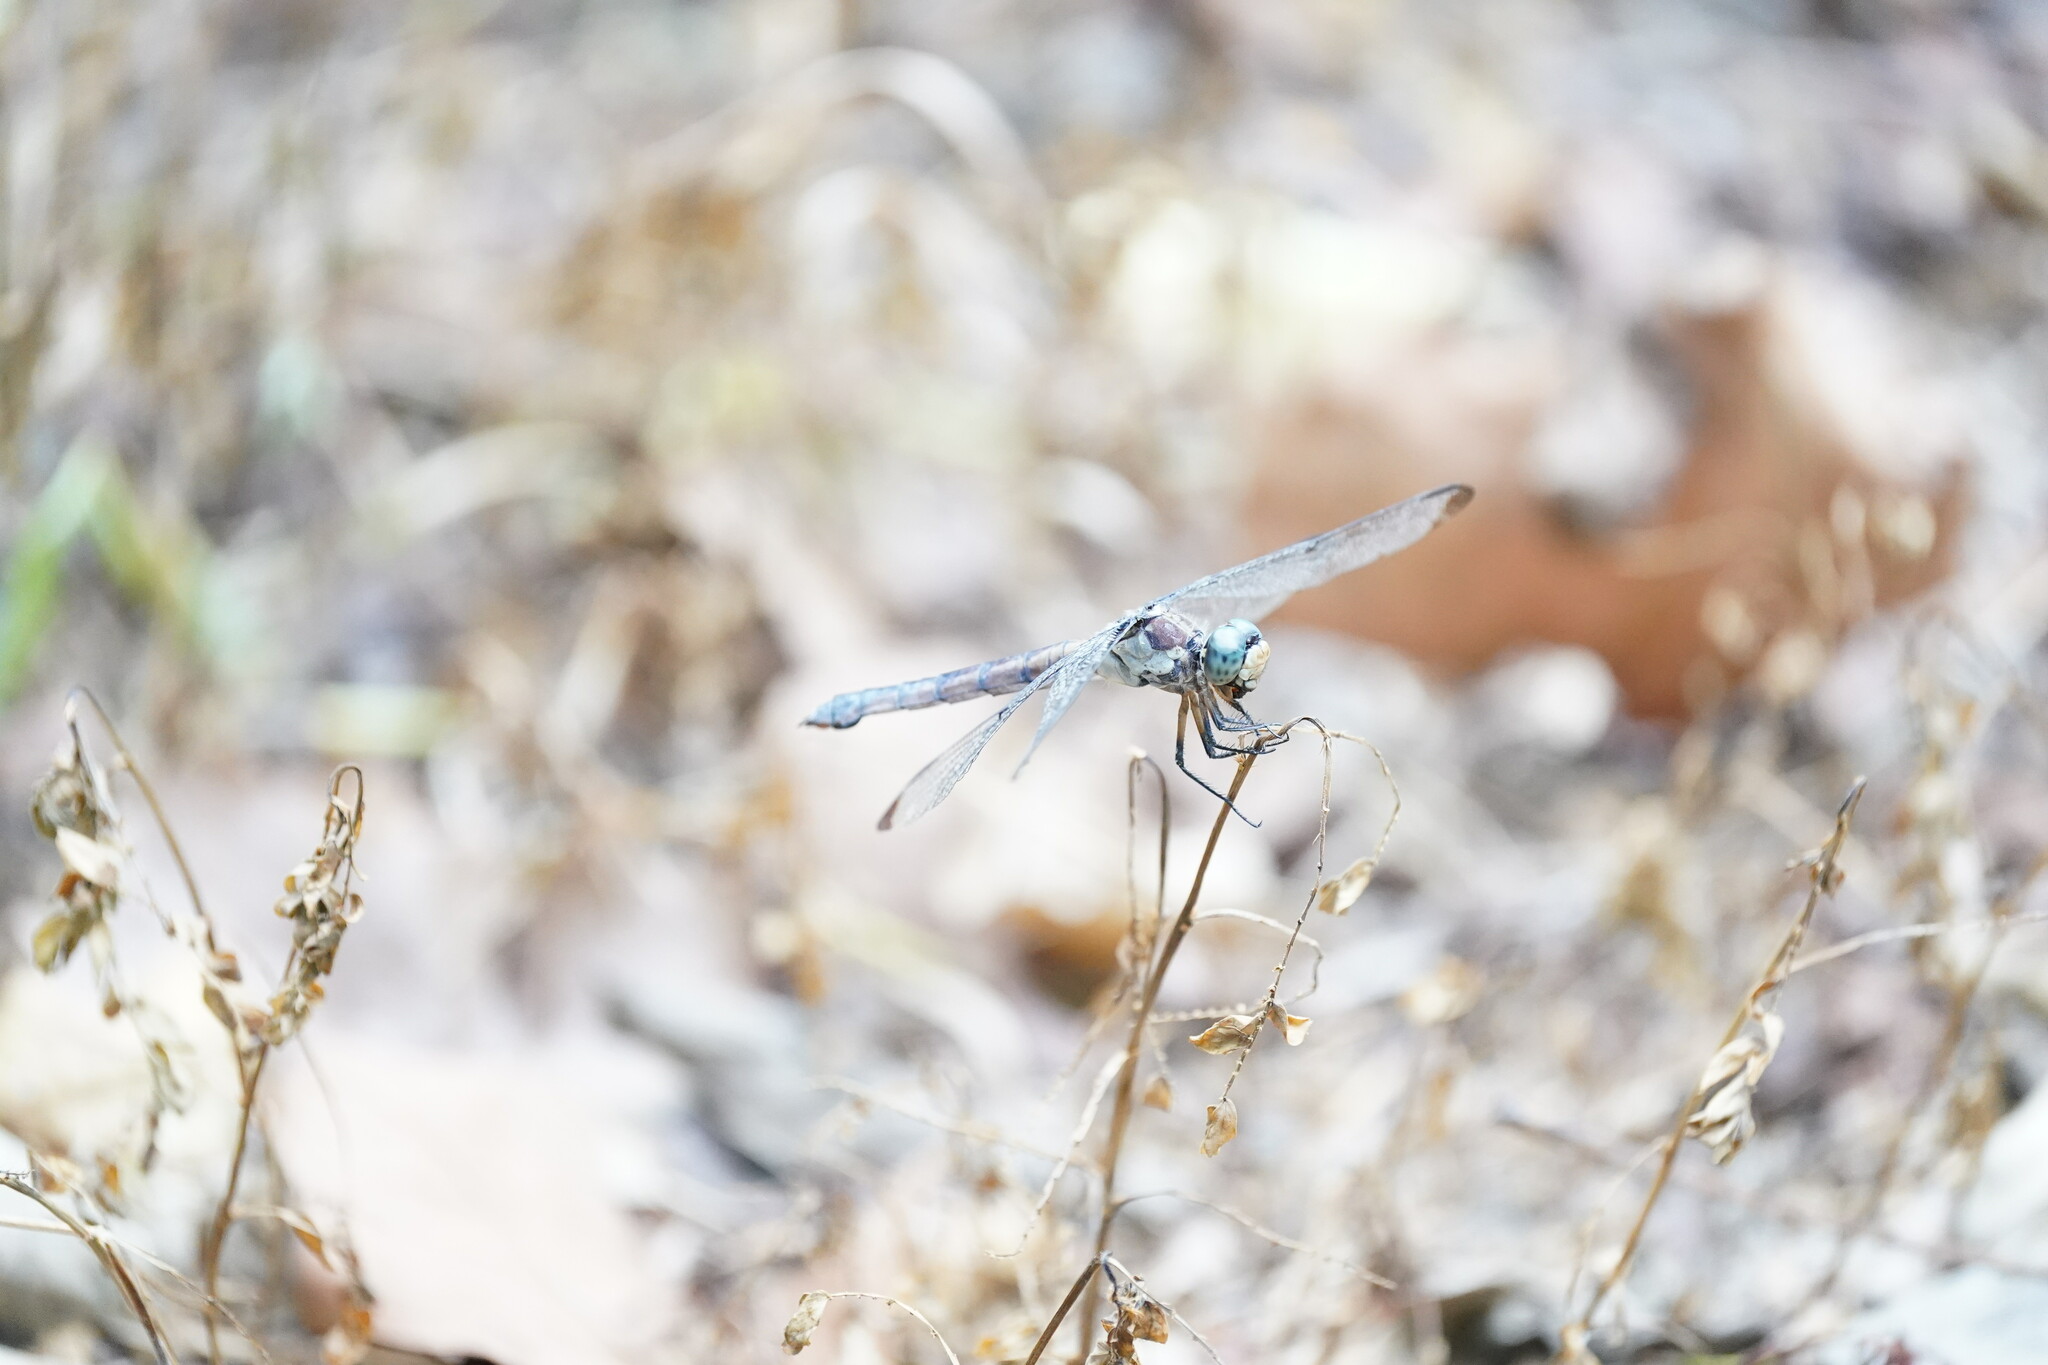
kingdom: Animalia
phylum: Arthropoda
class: Insecta
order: Odonata
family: Libellulidae
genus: Libellula
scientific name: Libellula vibrans
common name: Great blue skimmer
